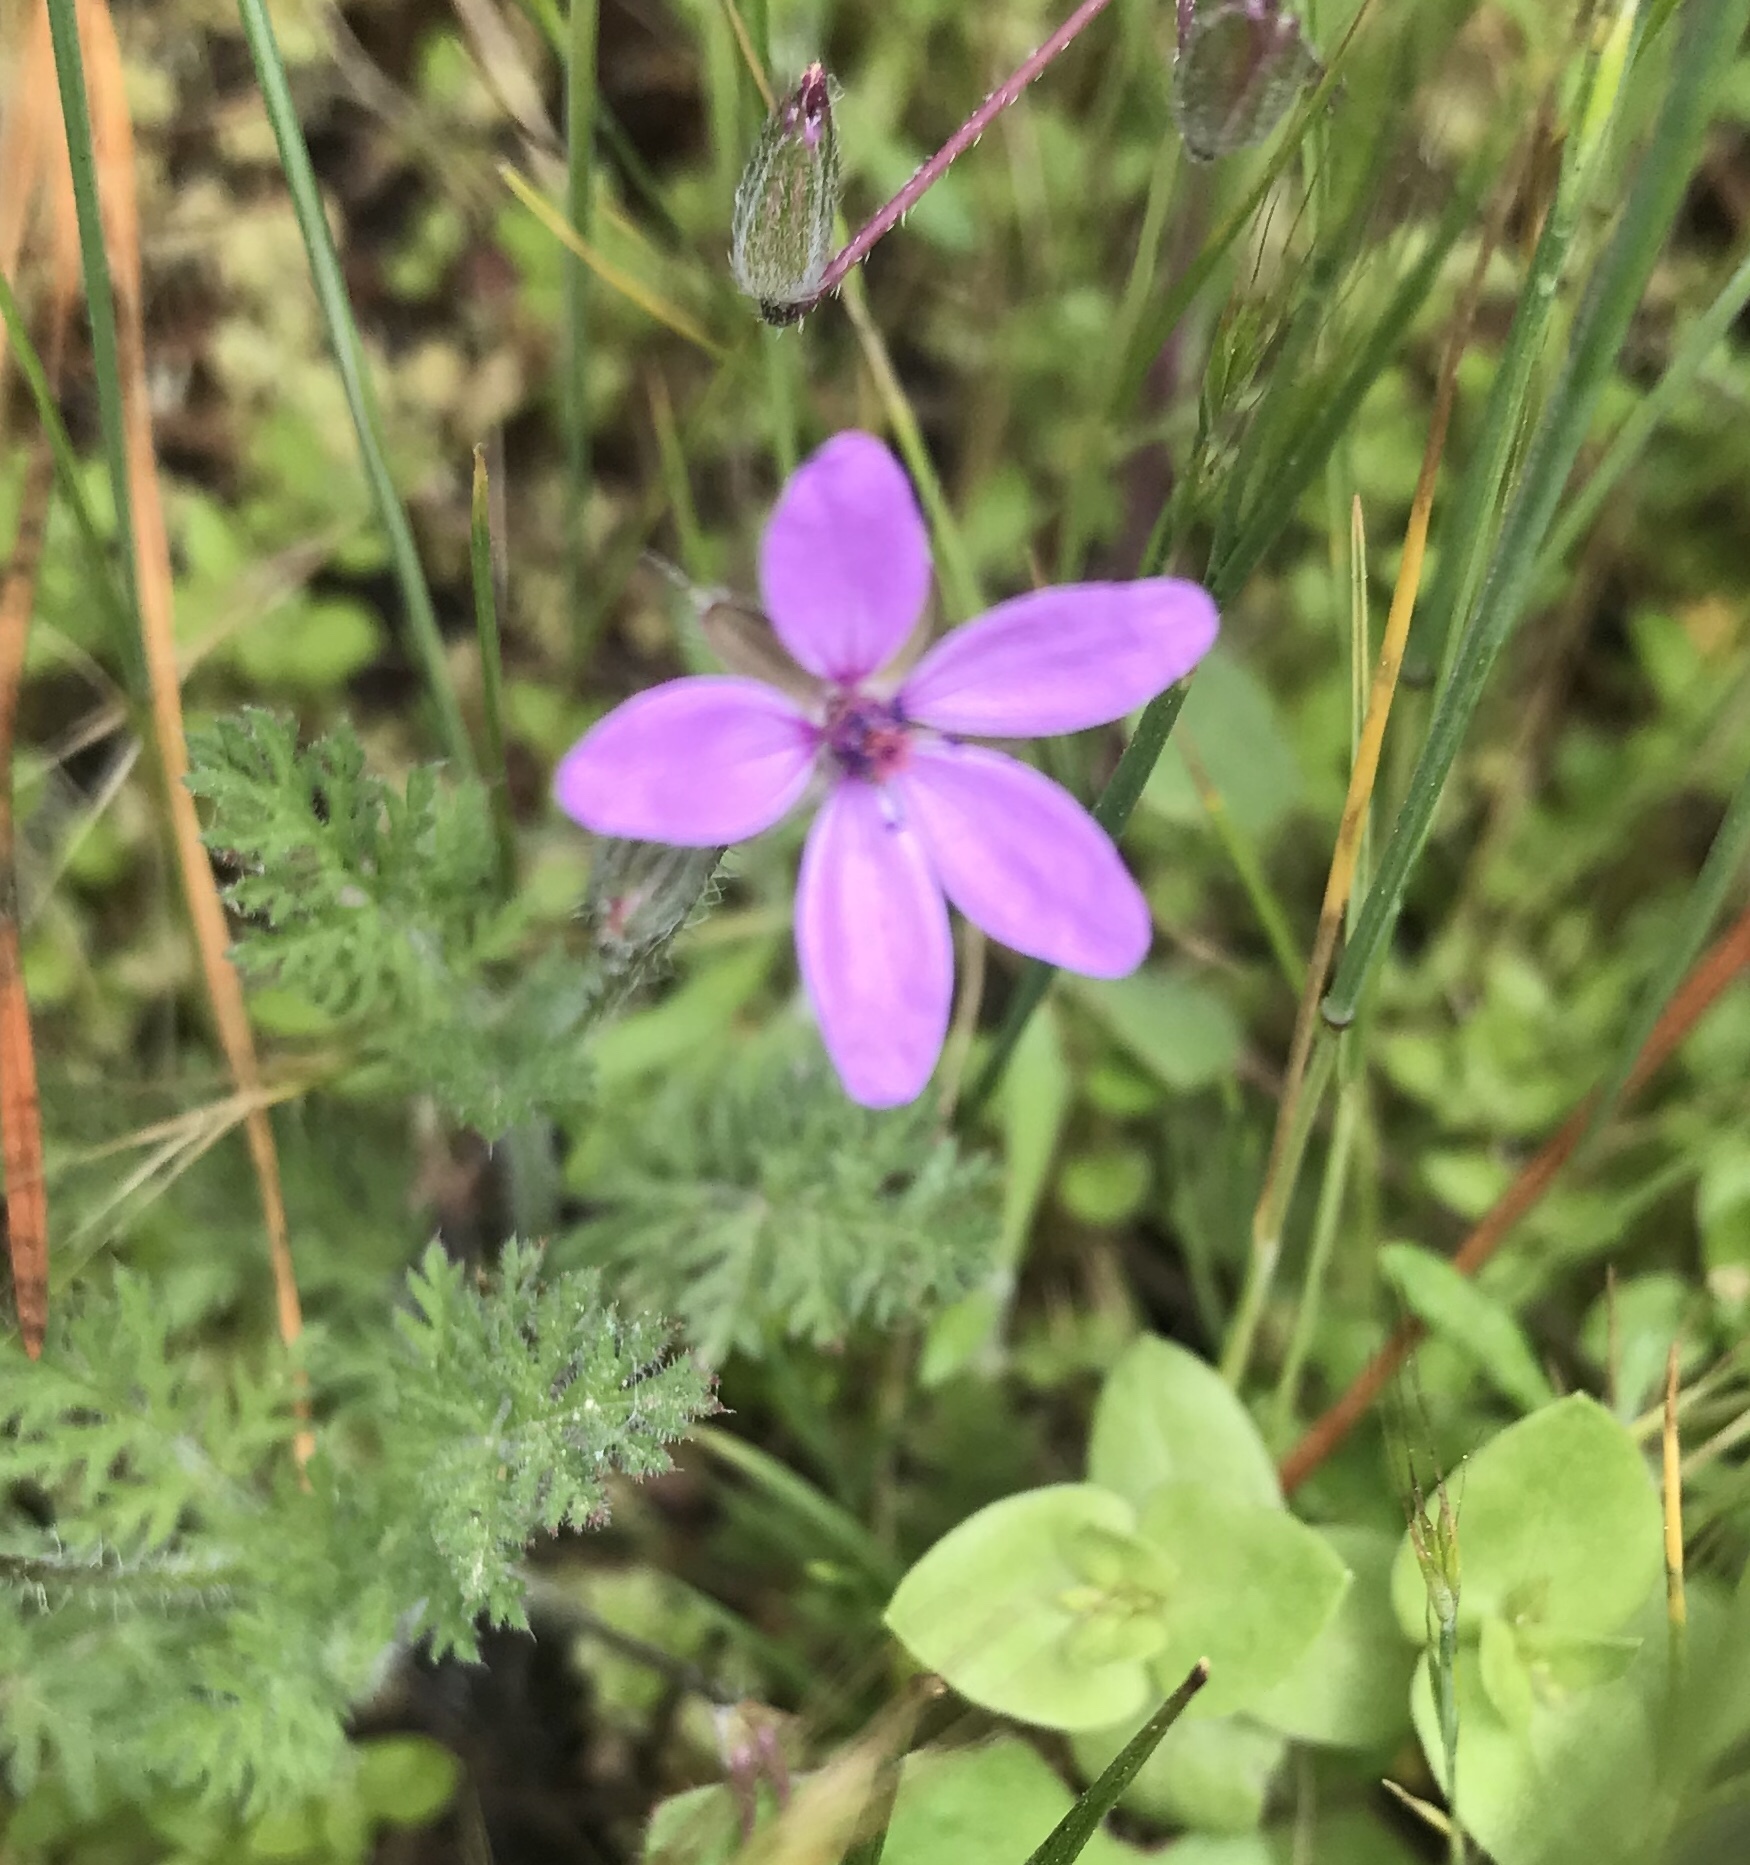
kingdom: Plantae
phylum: Tracheophyta
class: Magnoliopsida
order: Geraniales
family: Geraniaceae
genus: Erodium
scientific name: Erodium cicutarium
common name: Common stork's-bill
